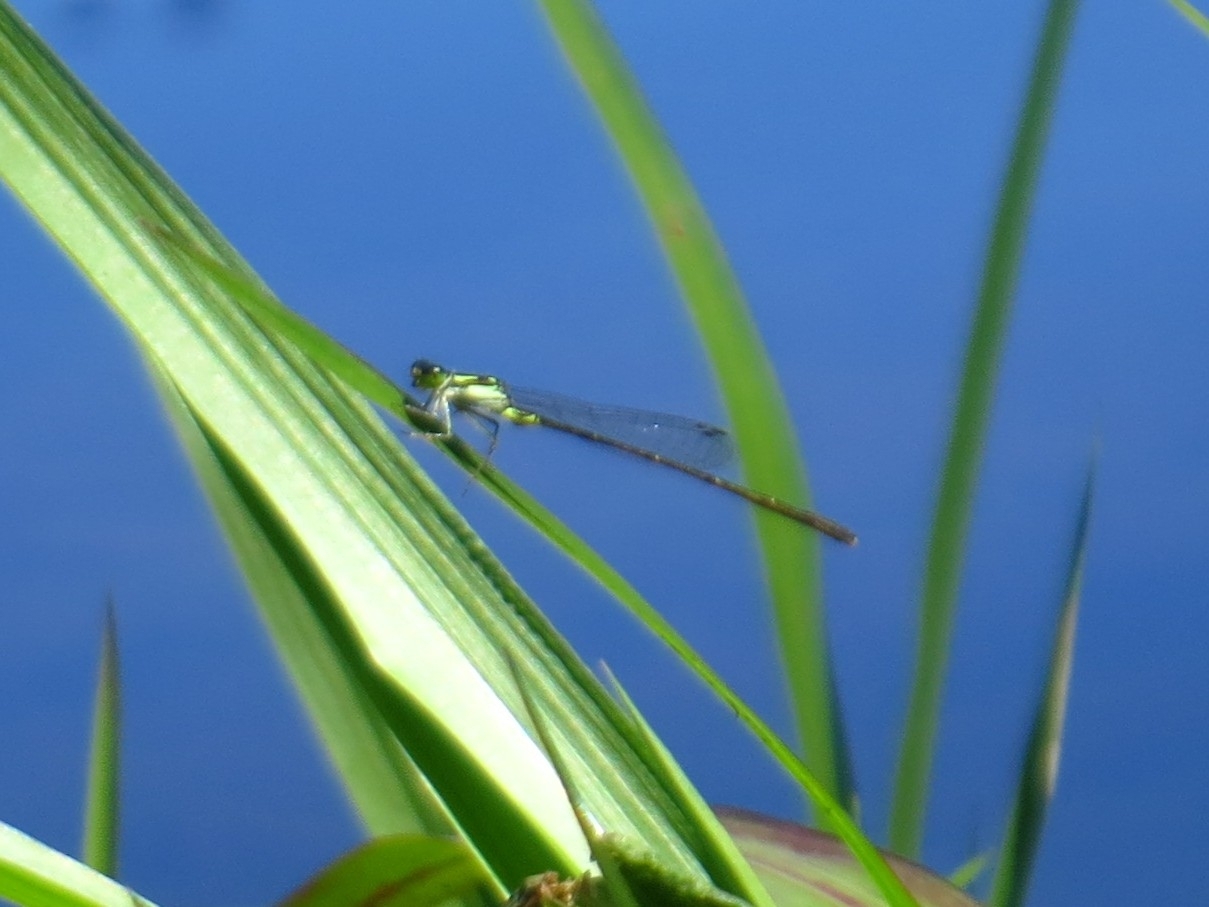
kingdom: Animalia
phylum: Arthropoda
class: Insecta
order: Odonata
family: Coenagrionidae
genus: Ischnura
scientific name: Ischnura posita
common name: Fragile forktail
